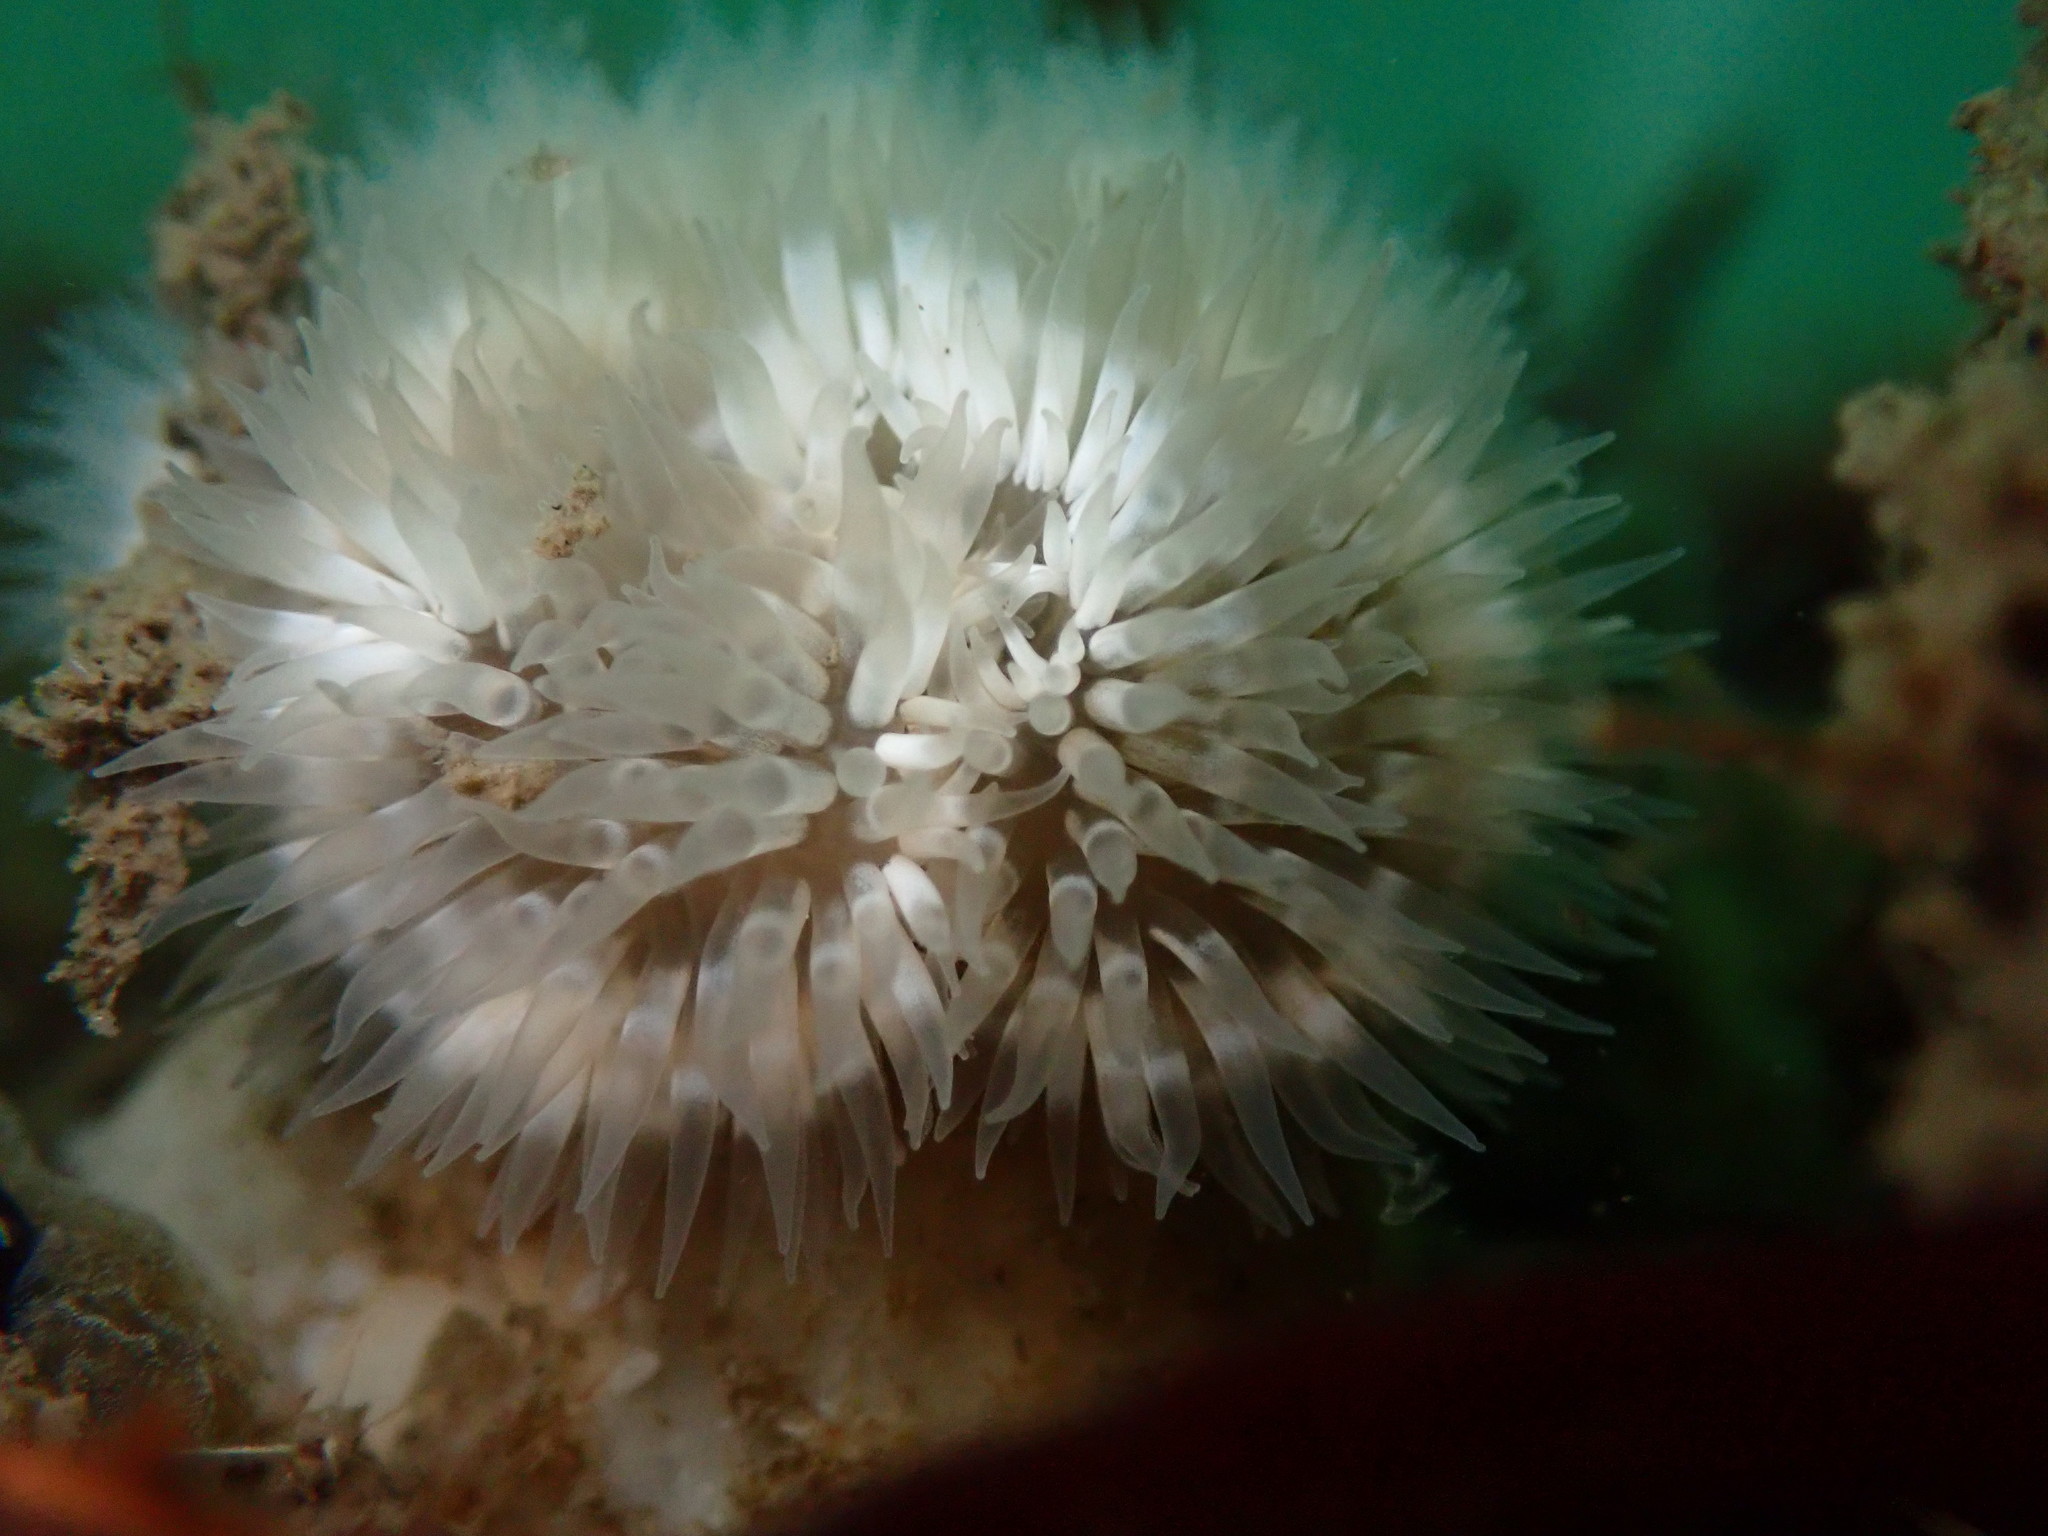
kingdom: Animalia
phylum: Cnidaria
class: Anthozoa
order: Actiniaria
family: Metridiidae
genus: Metridium
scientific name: Metridium senile
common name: Clonal plumose anemone
